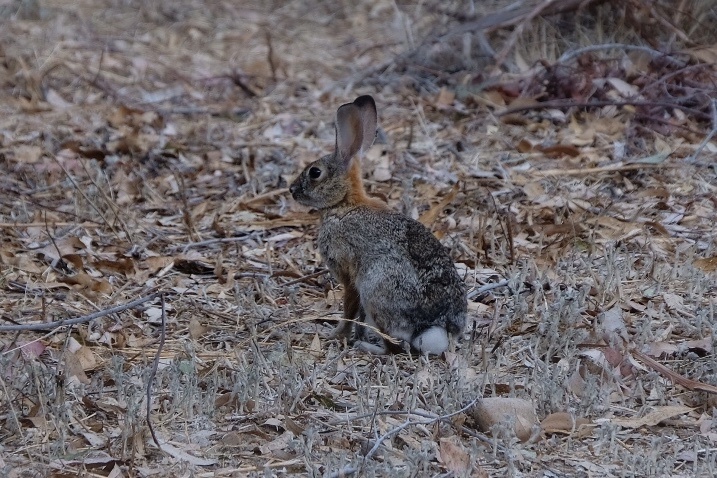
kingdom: Animalia
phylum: Chordata
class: Mammalia
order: Lagomorpha
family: Leporidae
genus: Sylvilagus
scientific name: Sylvilagus audubonii
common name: Desert cottontail
